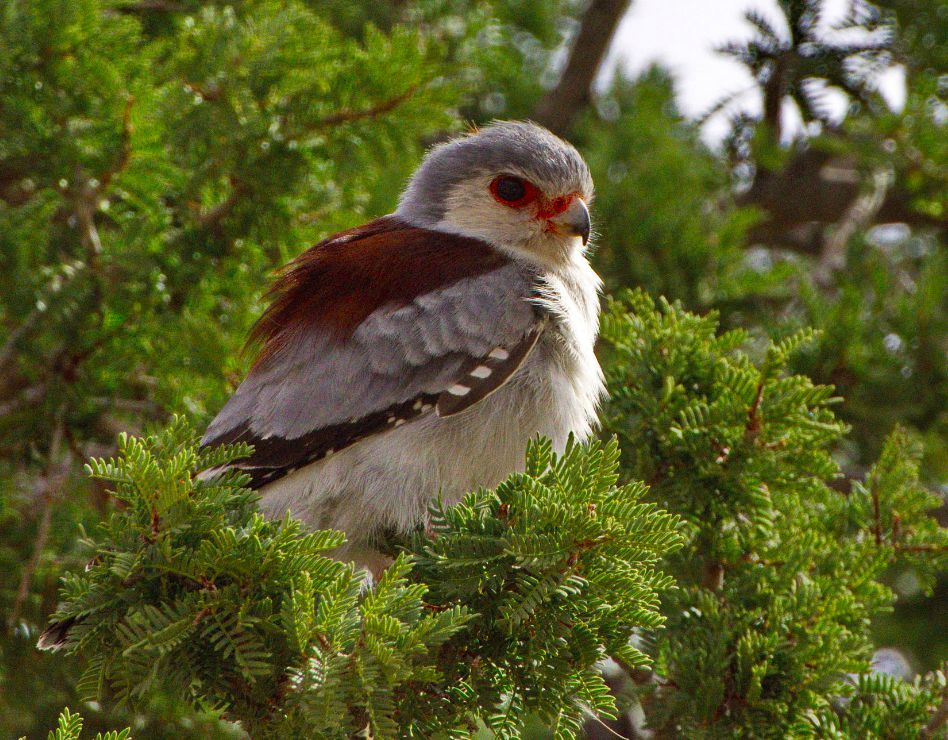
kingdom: Animalia
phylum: Chordata
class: Aves
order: Falconiformes
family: Falconidae
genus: Polihierax
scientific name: Polihierax semitorquatus
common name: Pygmy falcon
